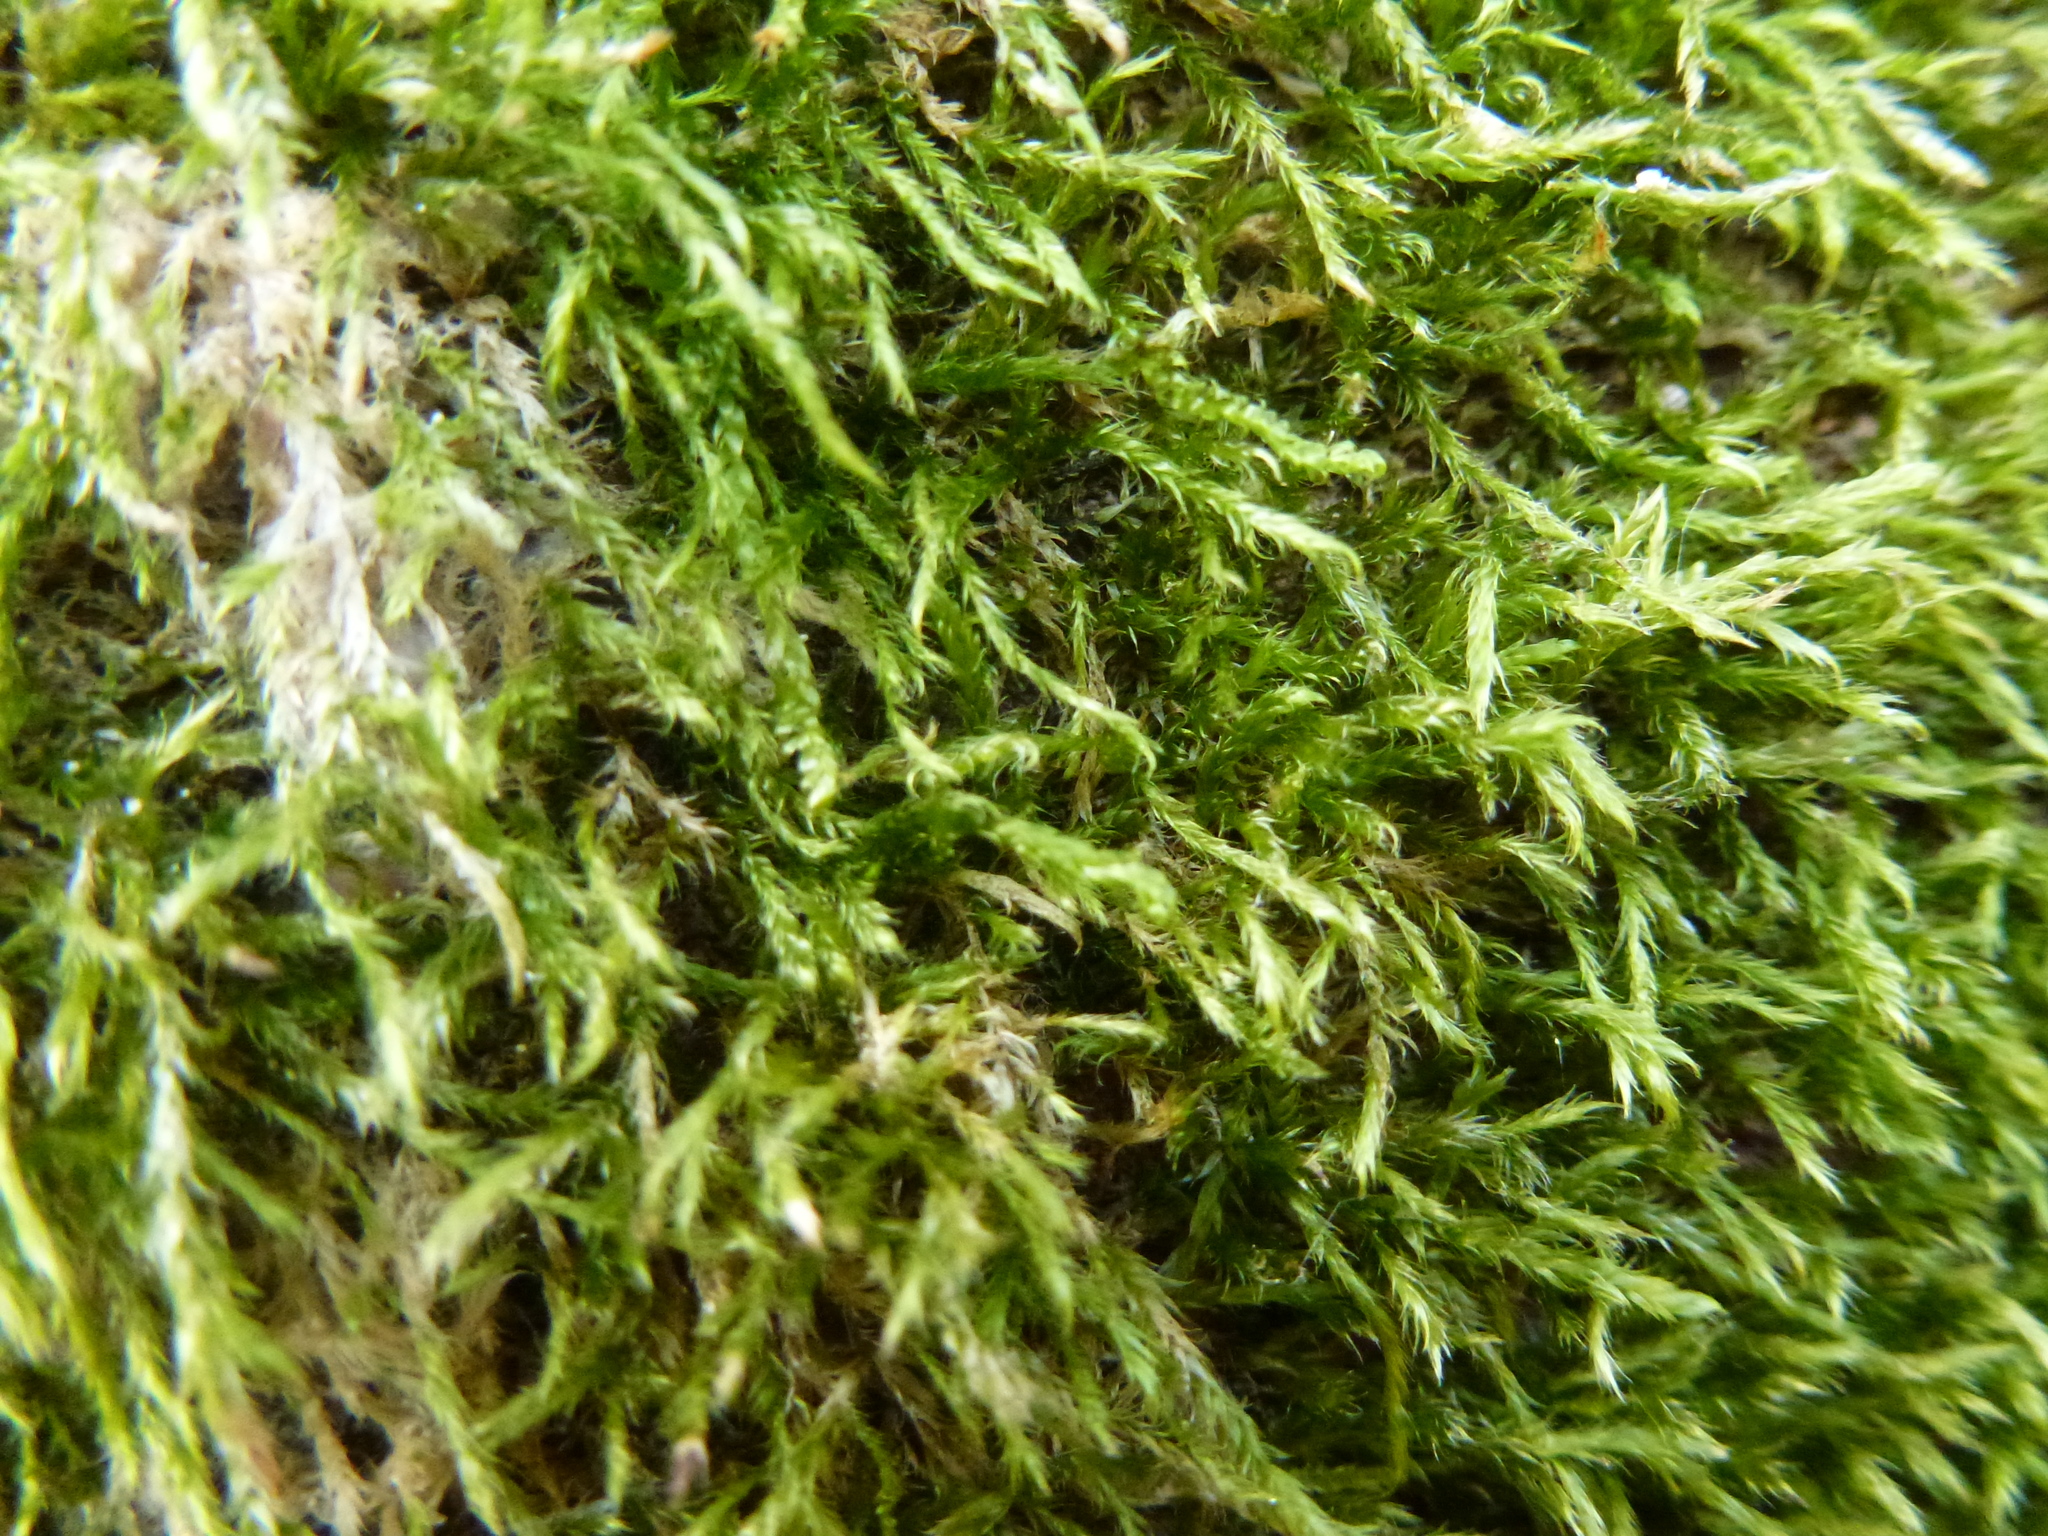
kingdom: Plantae
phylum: Bryophyta
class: Bryopsida
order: Hypnales
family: Hypnaceae
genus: Hypnum
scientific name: Hypnum resupinatum
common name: Supine plait-moss
